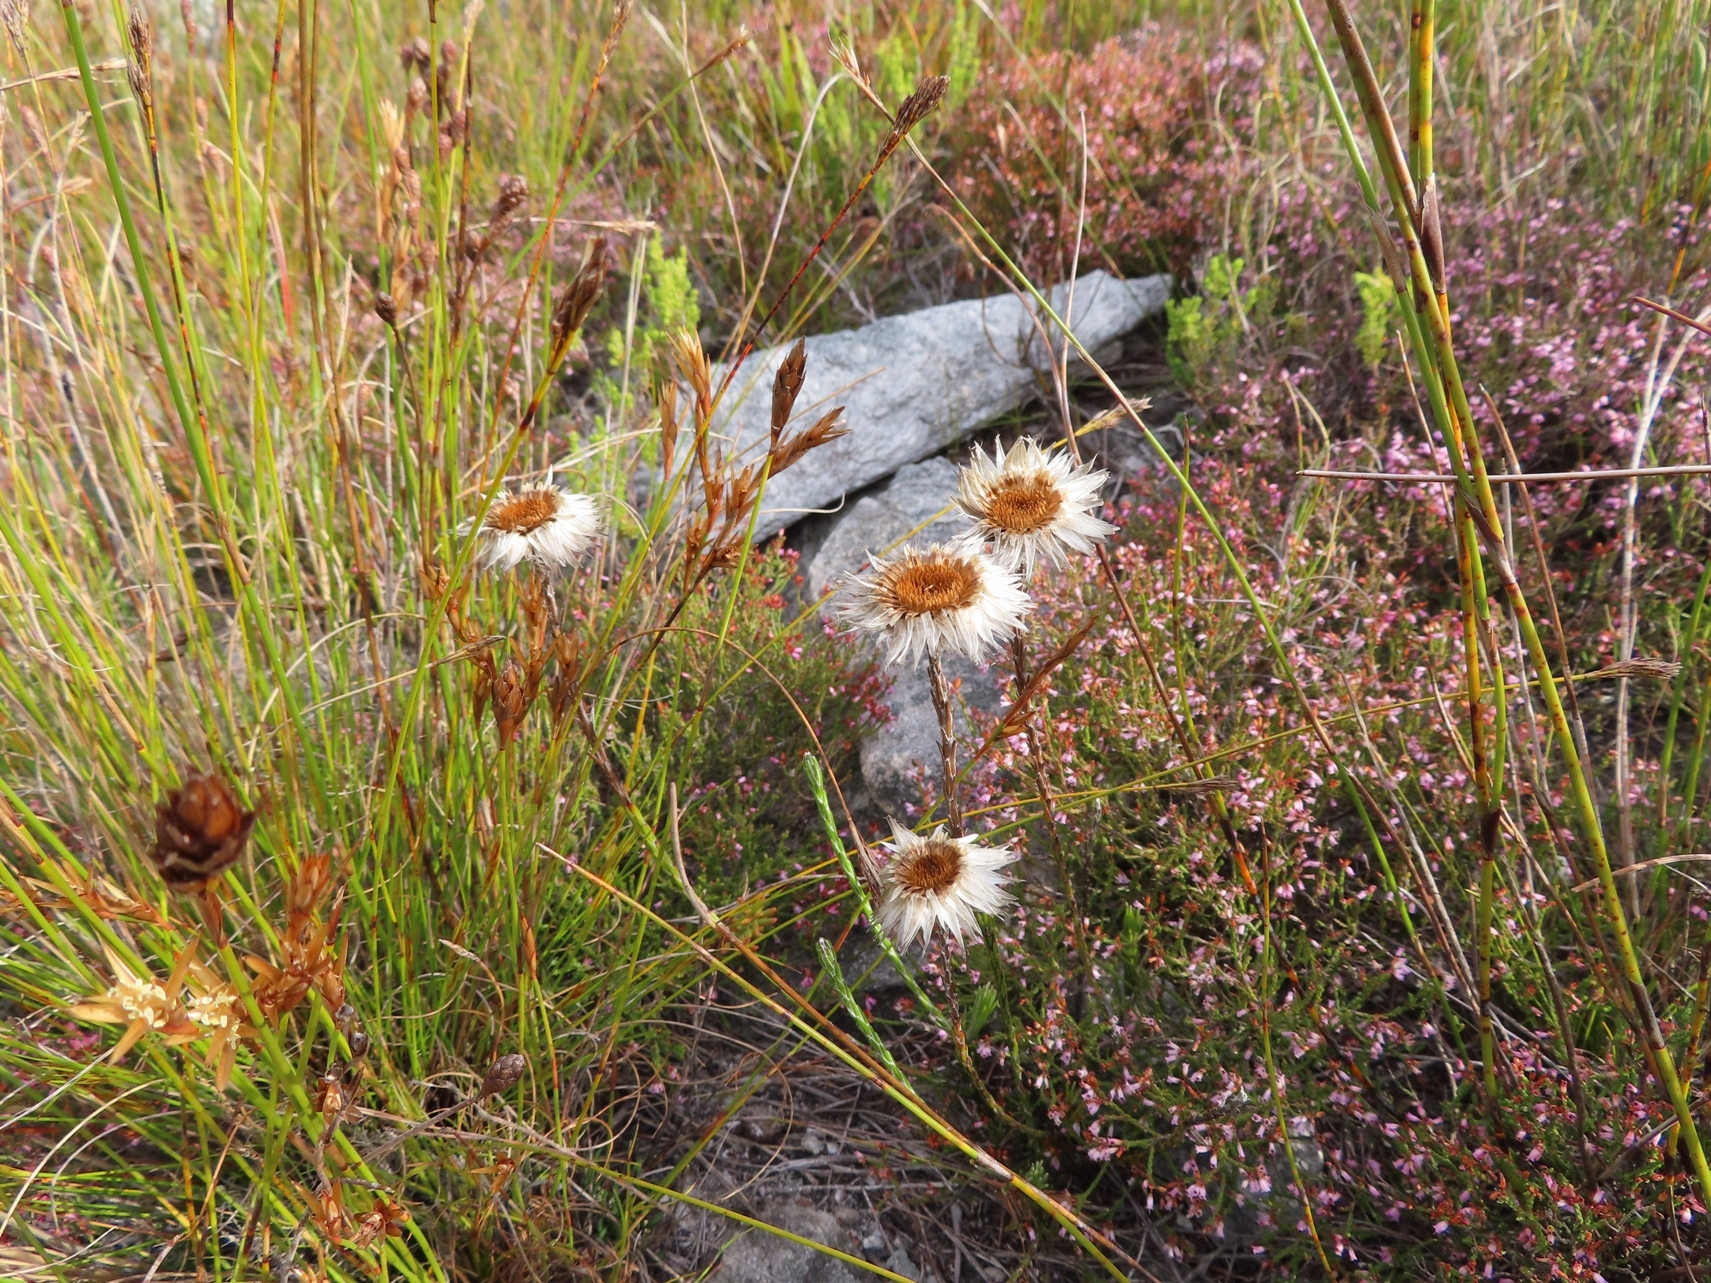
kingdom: Plantae
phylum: Tracheophyta
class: Magnoliopsida
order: Asterales
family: Asteraceae
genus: Edmondia
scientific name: Edmondia sesamoides
